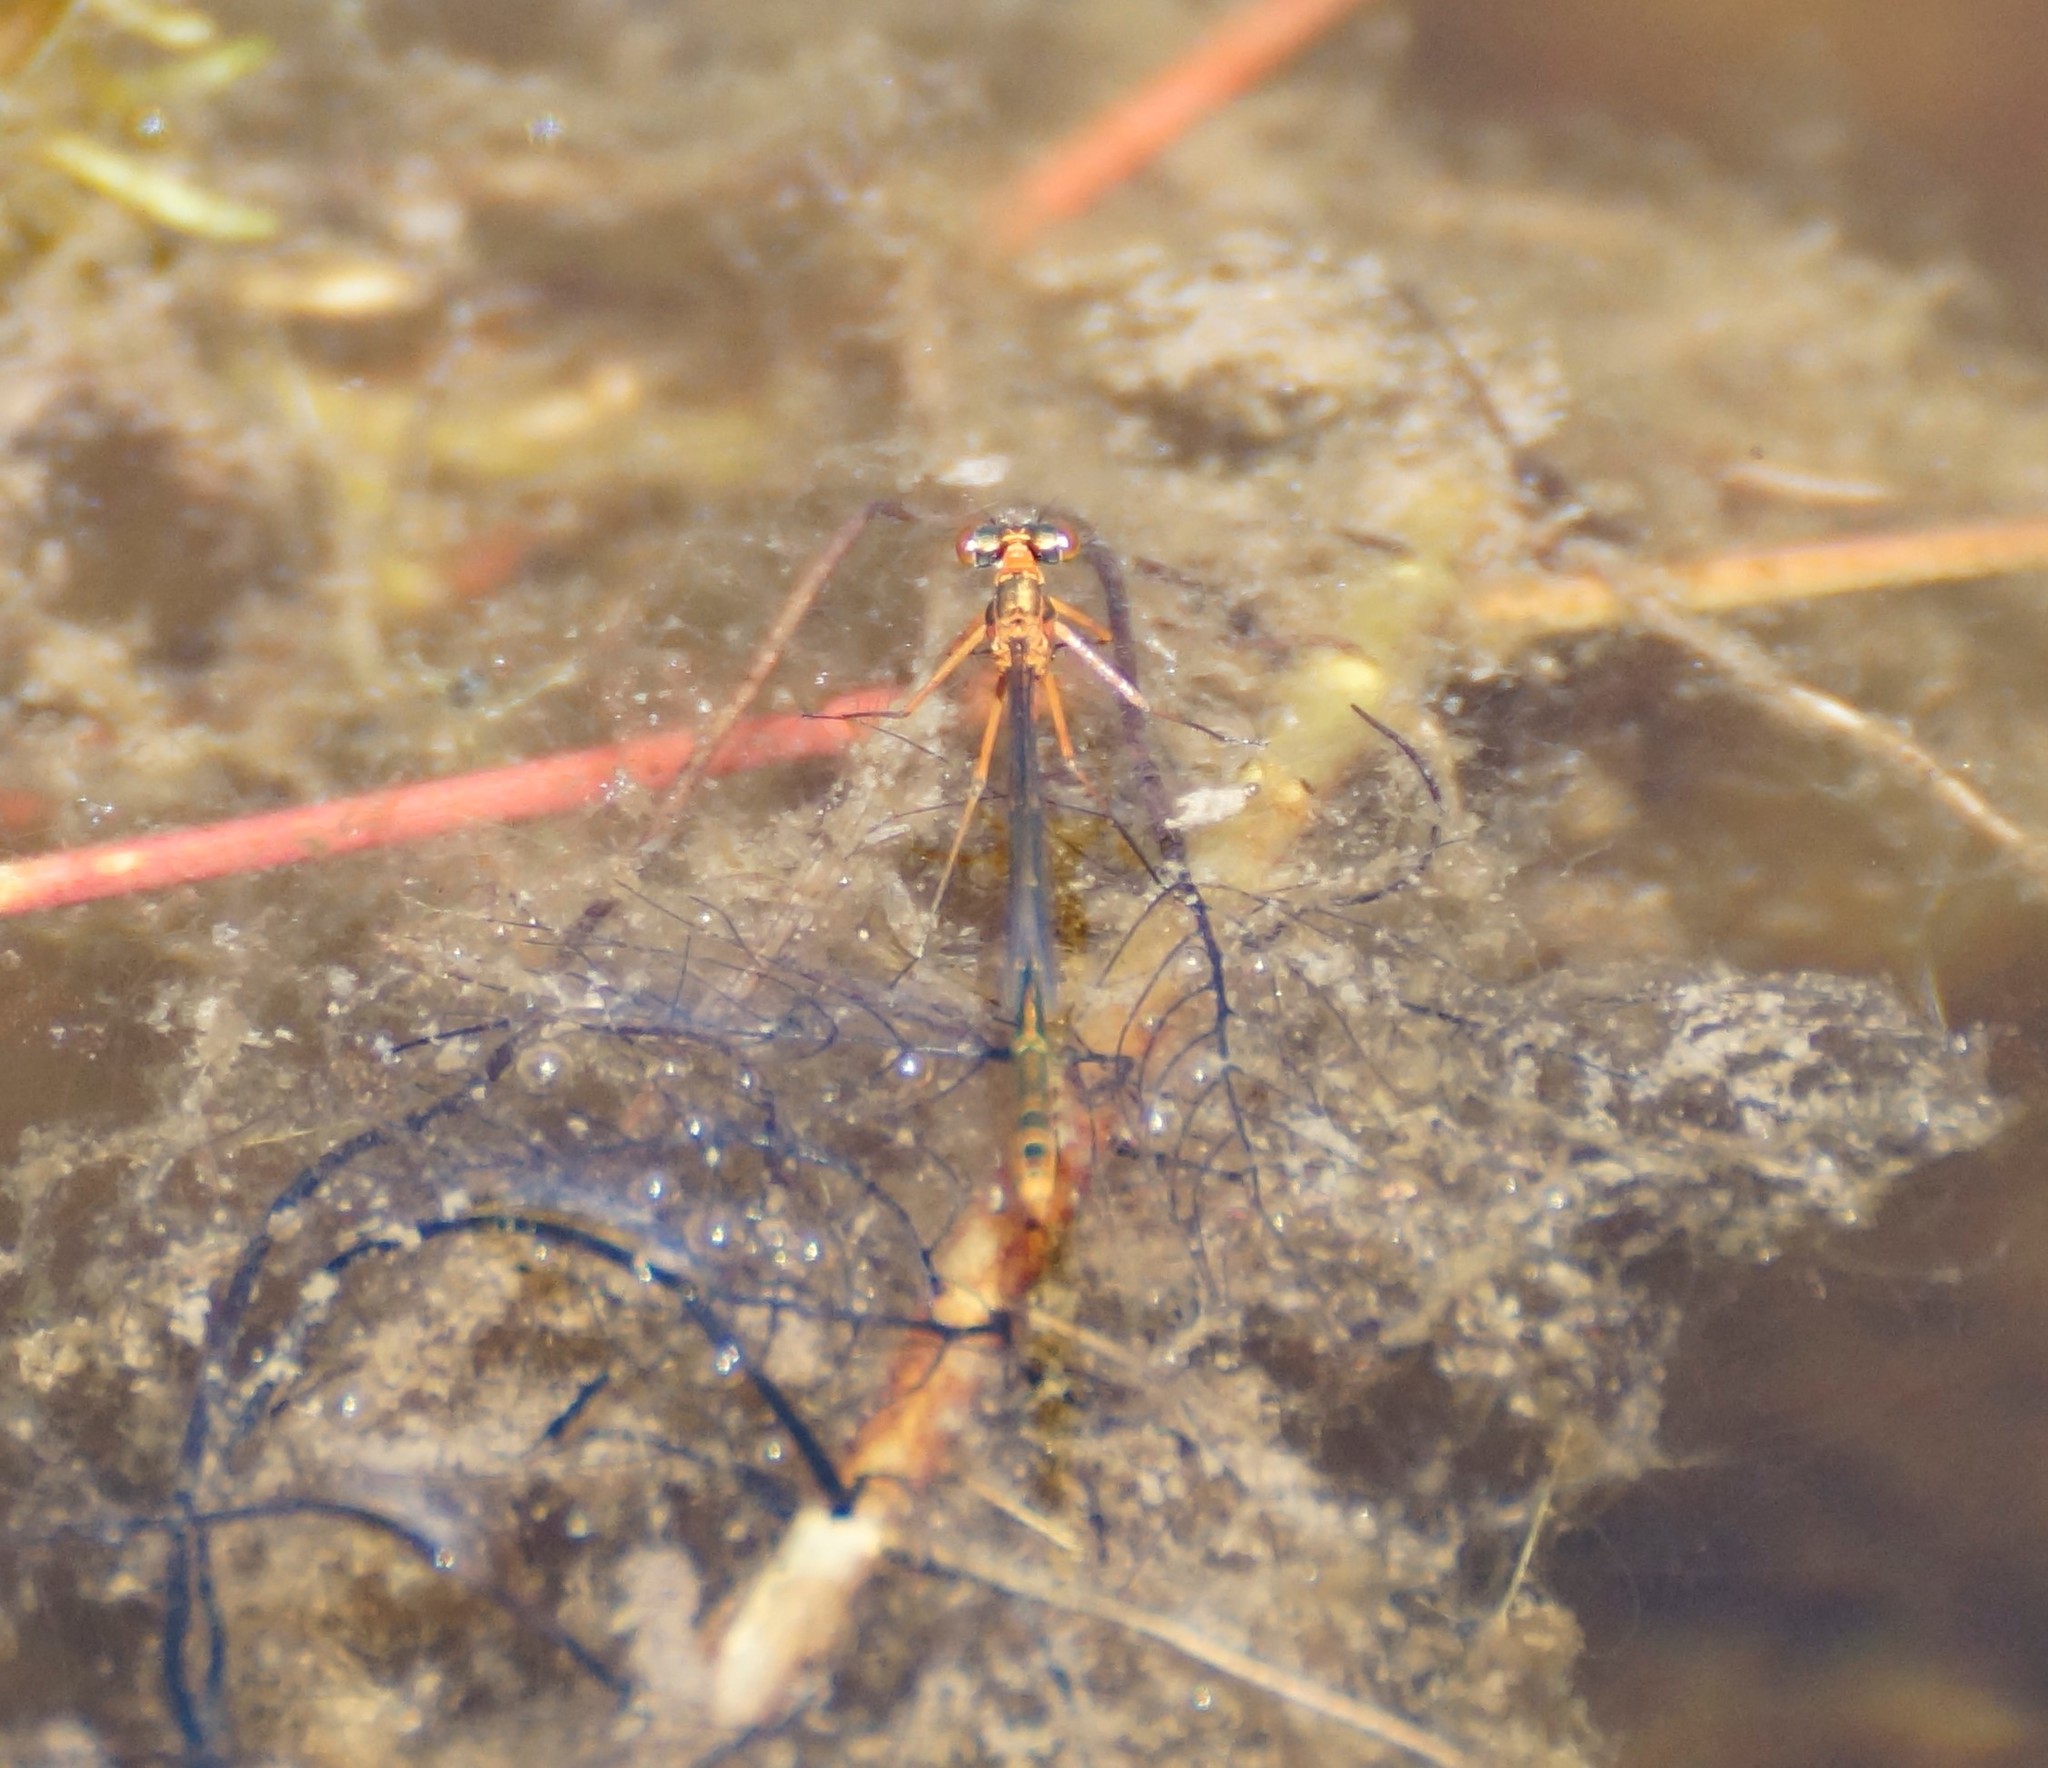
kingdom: Animalia
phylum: Arthropoda
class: Insecta
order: Odonata
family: Coenagrionidae
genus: Austrocnemis
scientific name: Austrocnemis splendida
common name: Splendid longlegs
